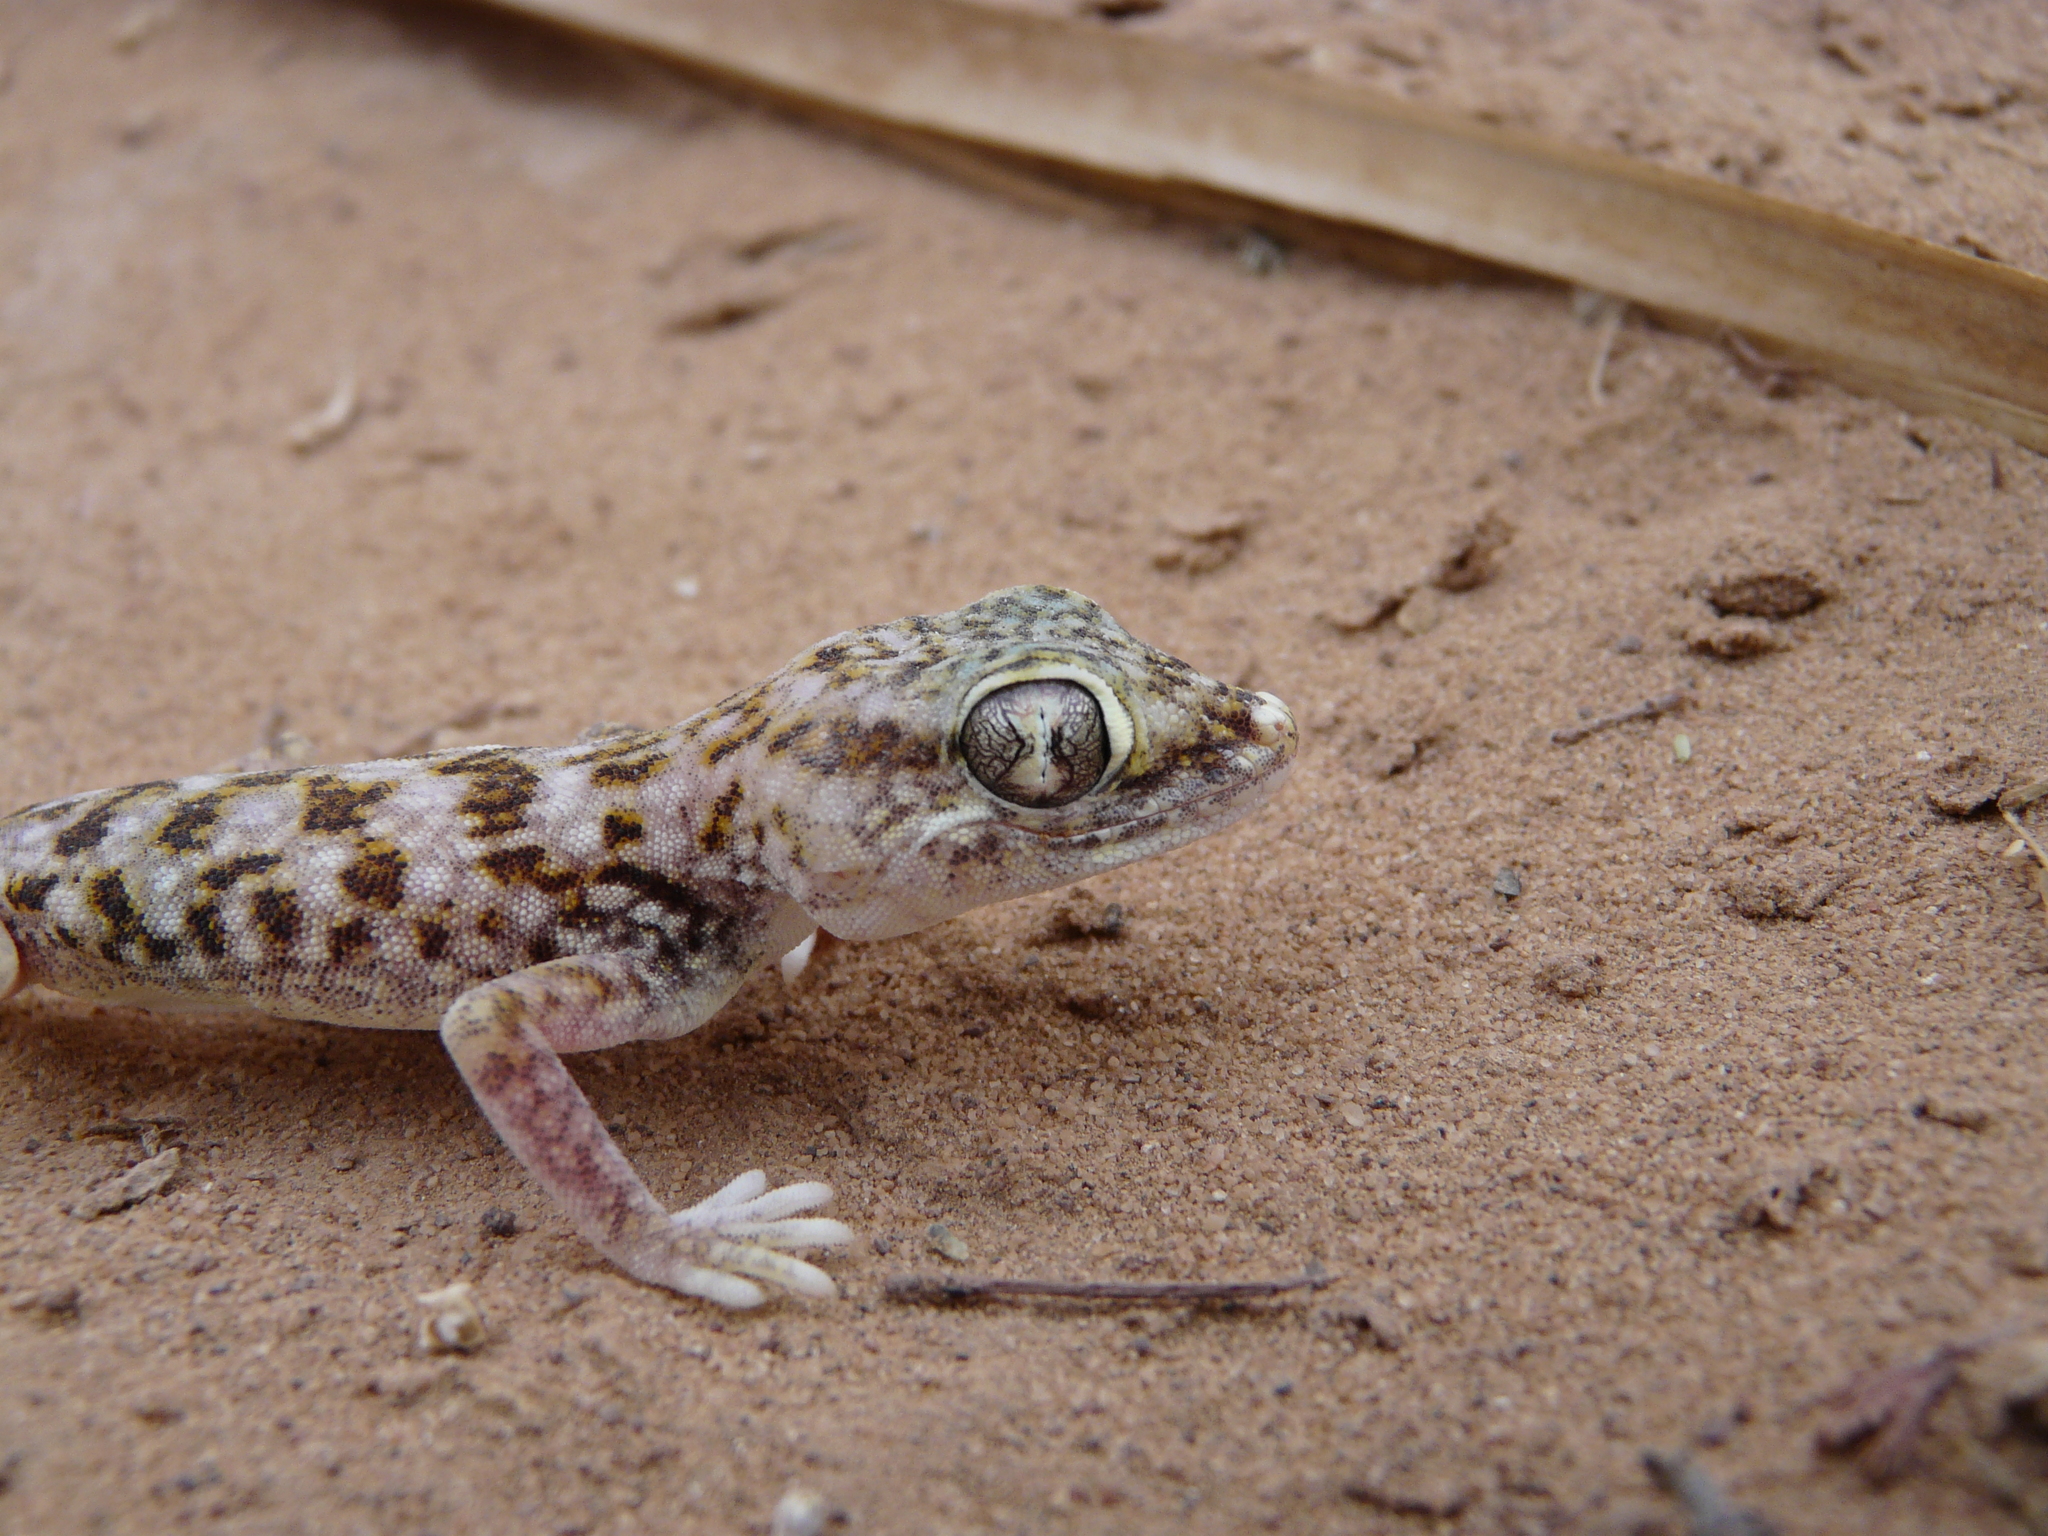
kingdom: Animalia
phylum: Chordata
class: Squamata
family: Gekkonidae
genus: Stenodactylus
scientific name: Stenodactylus doriae
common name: Dune sand gecko
